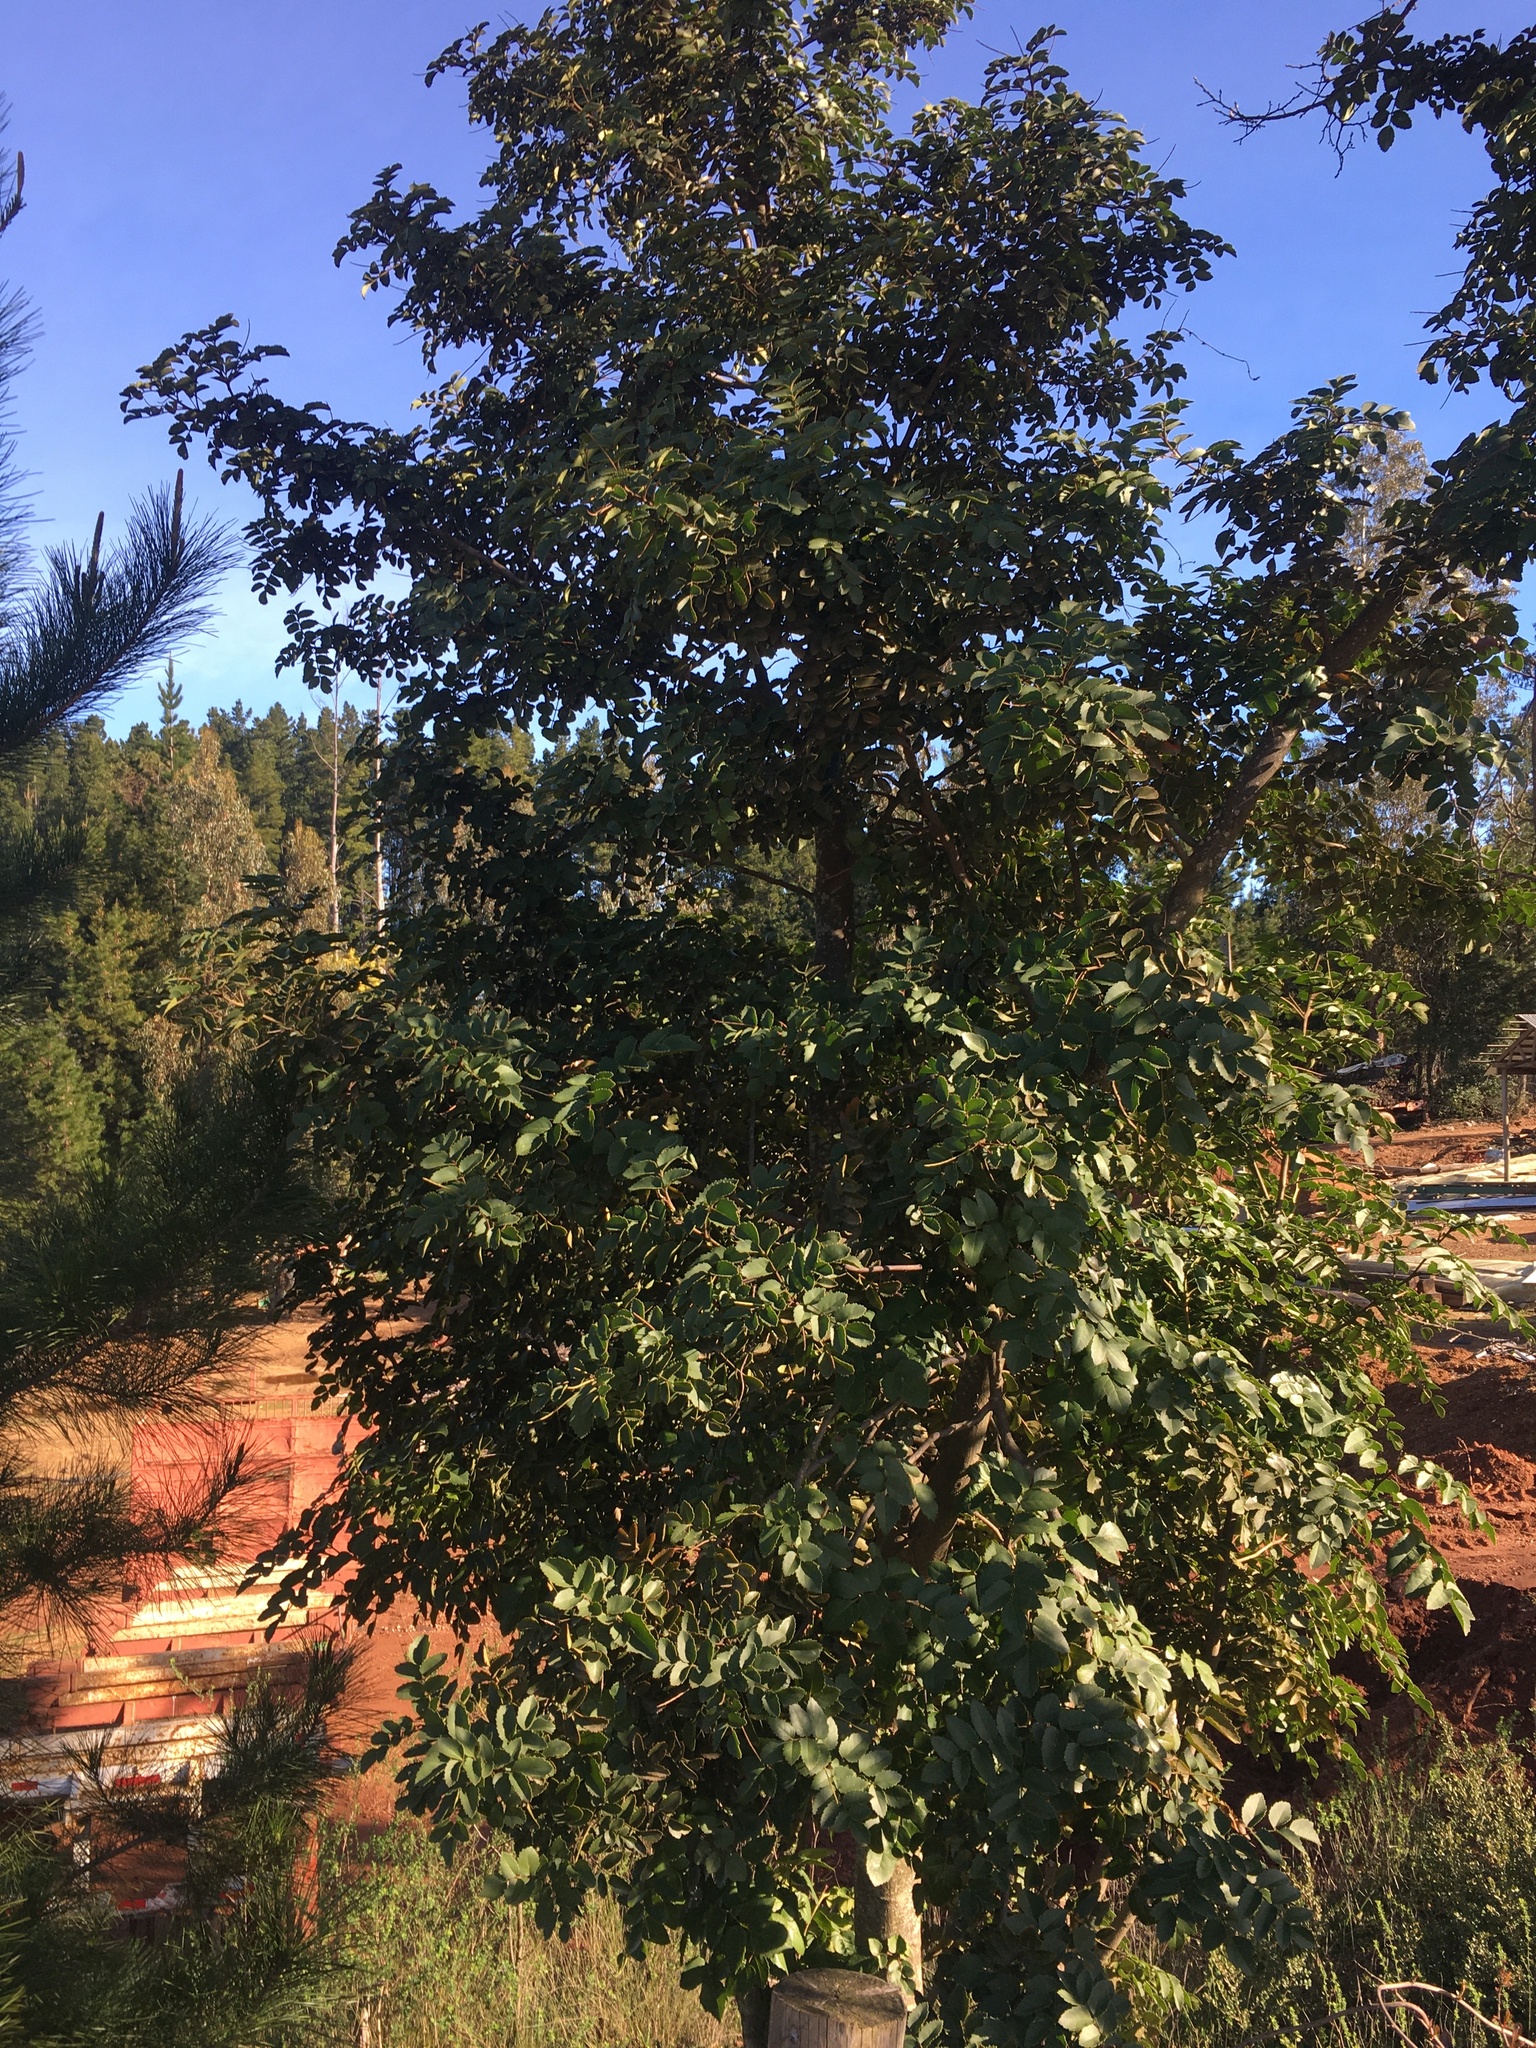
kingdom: Plantae
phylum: Tracheophyta
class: Magnoliopsida
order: Proteales
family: Proteaceae
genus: Gevuina
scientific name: Gevuina avellana
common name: Chilean hazel
